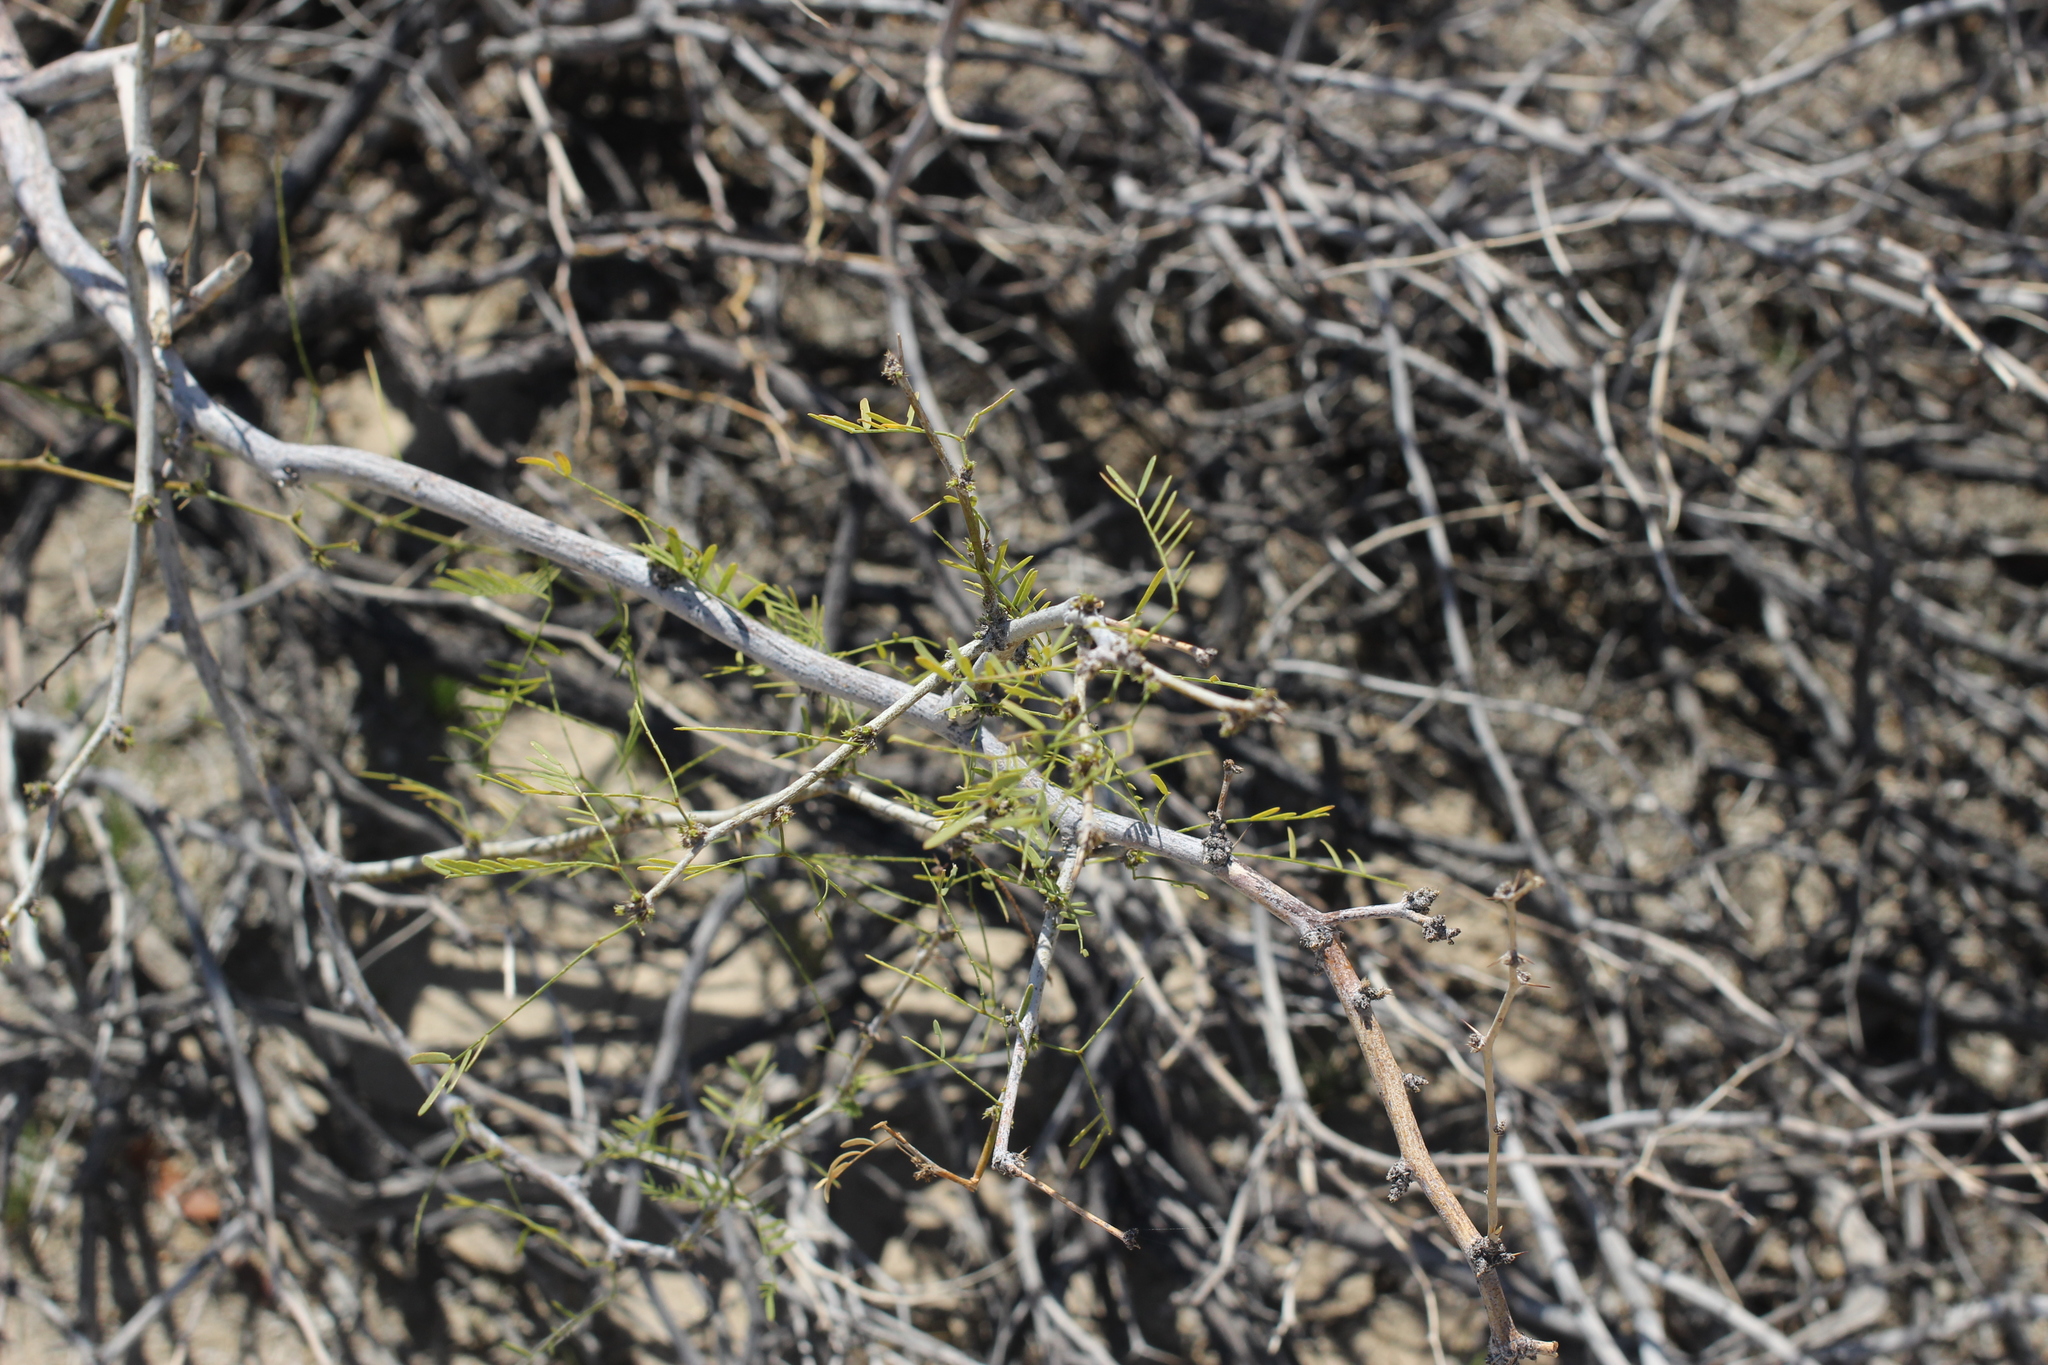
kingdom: Plantae
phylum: Tracheophyta
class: Magnoliopsida
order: Fabales
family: Fabaceae
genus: Prosopis
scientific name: Prosopis pubescens
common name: Screw-bean
